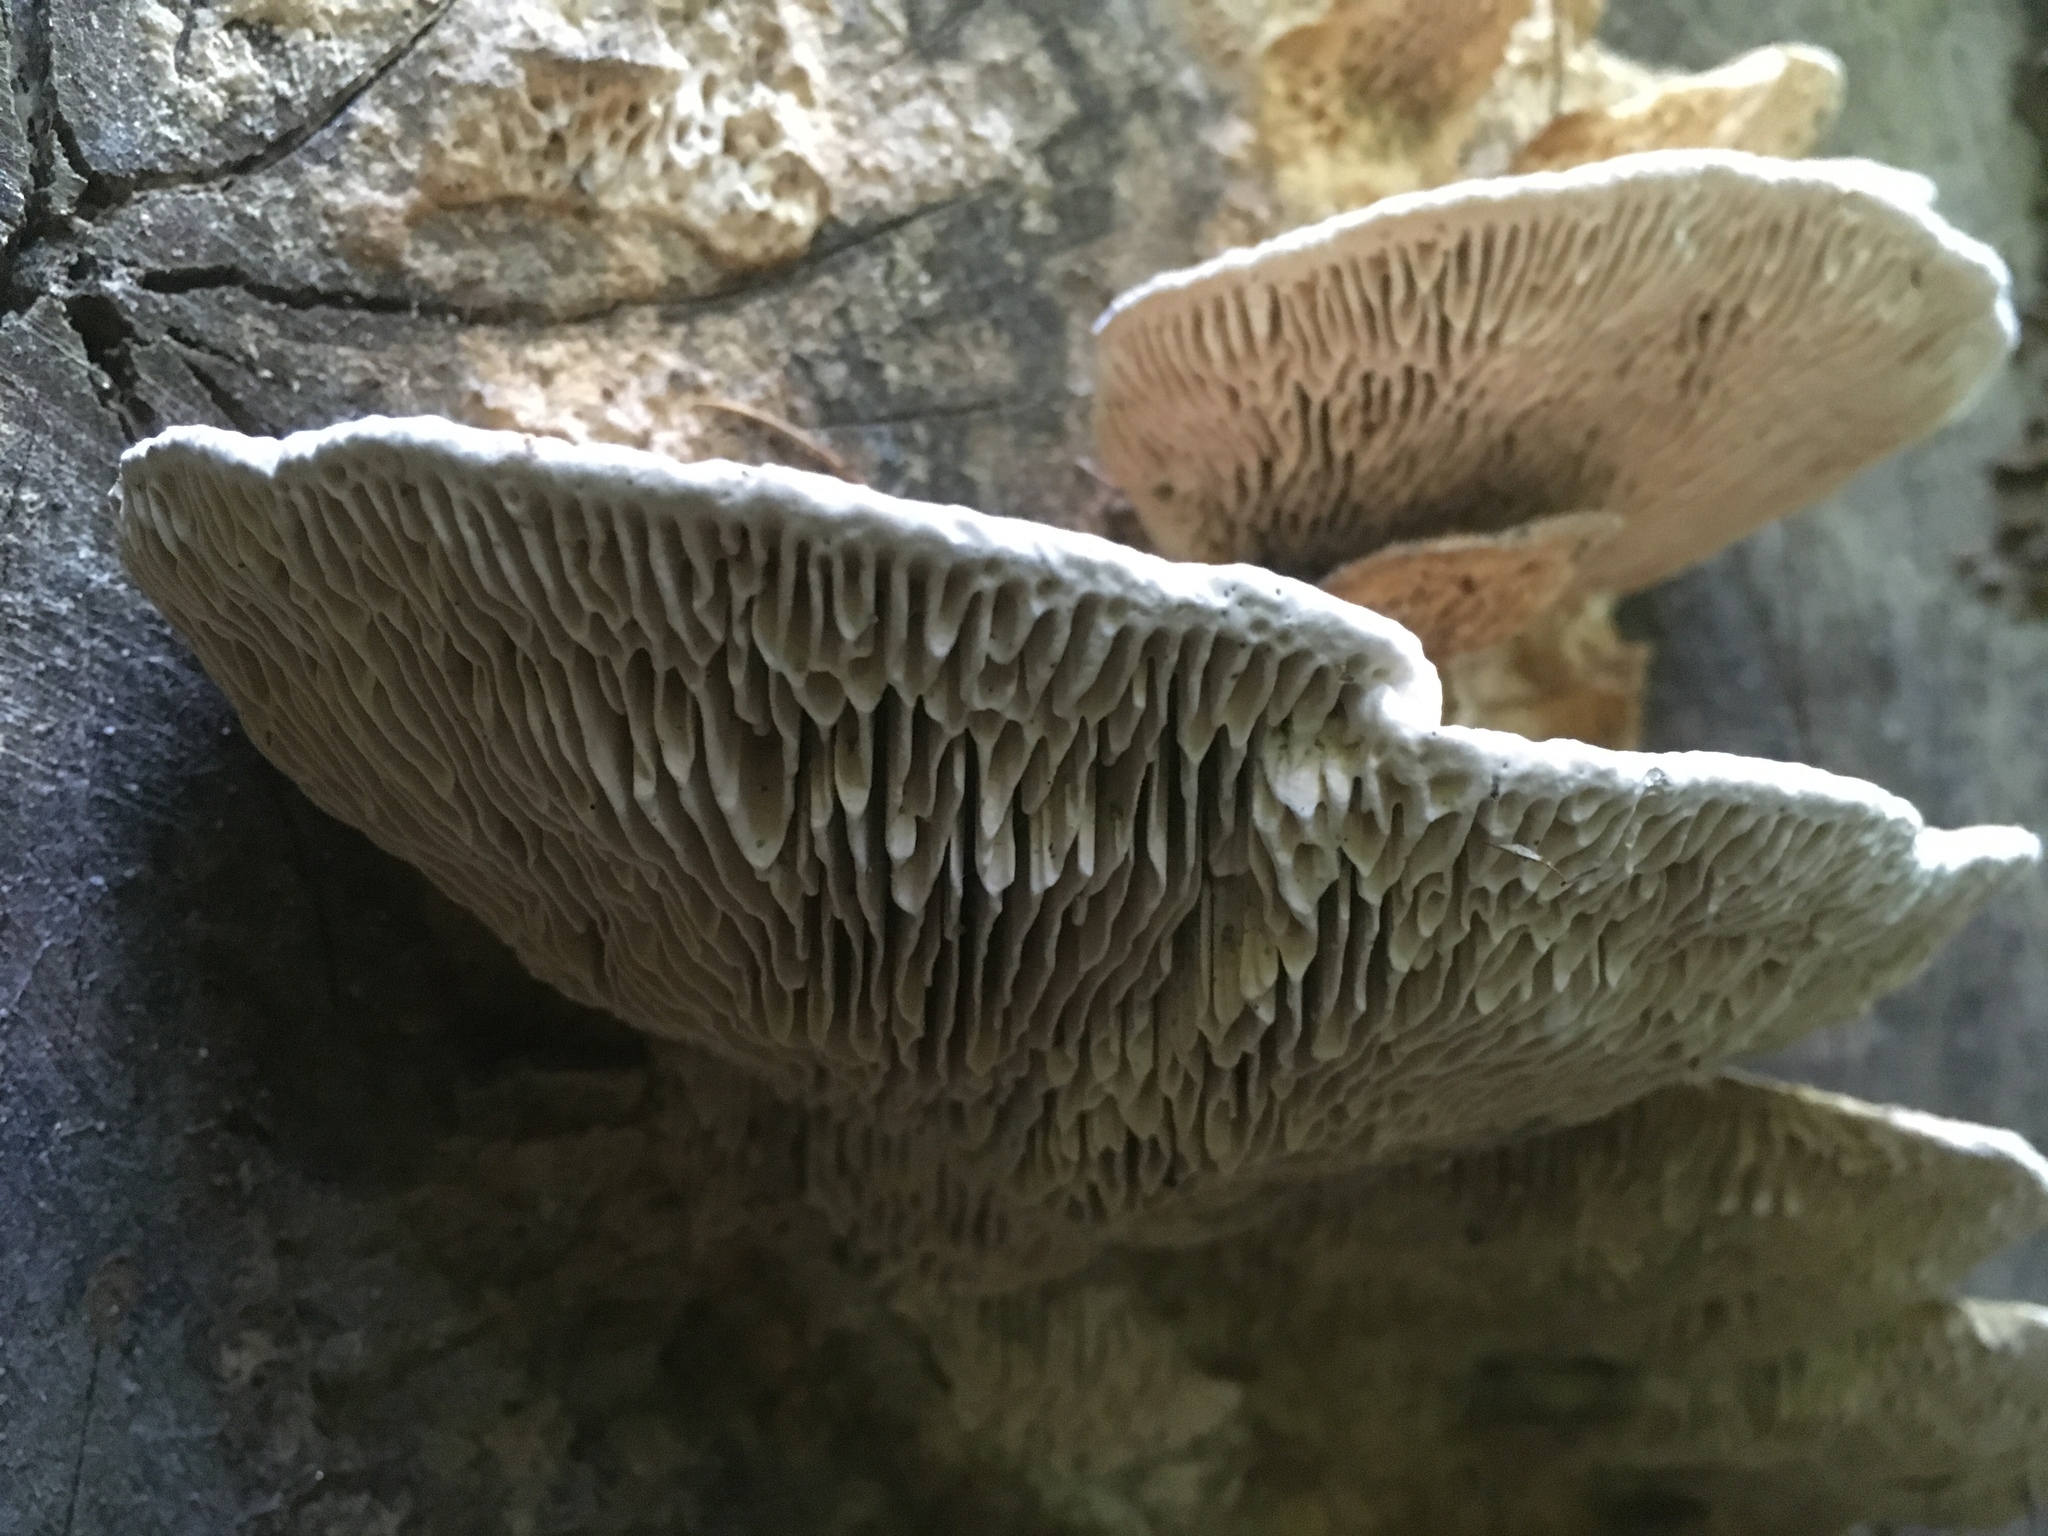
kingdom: Fungi
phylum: Basidiomycota
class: Agaricomycetes
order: Polyporales
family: Fomitopsidaceae
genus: Fomitopsis
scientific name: Fomitopsis
